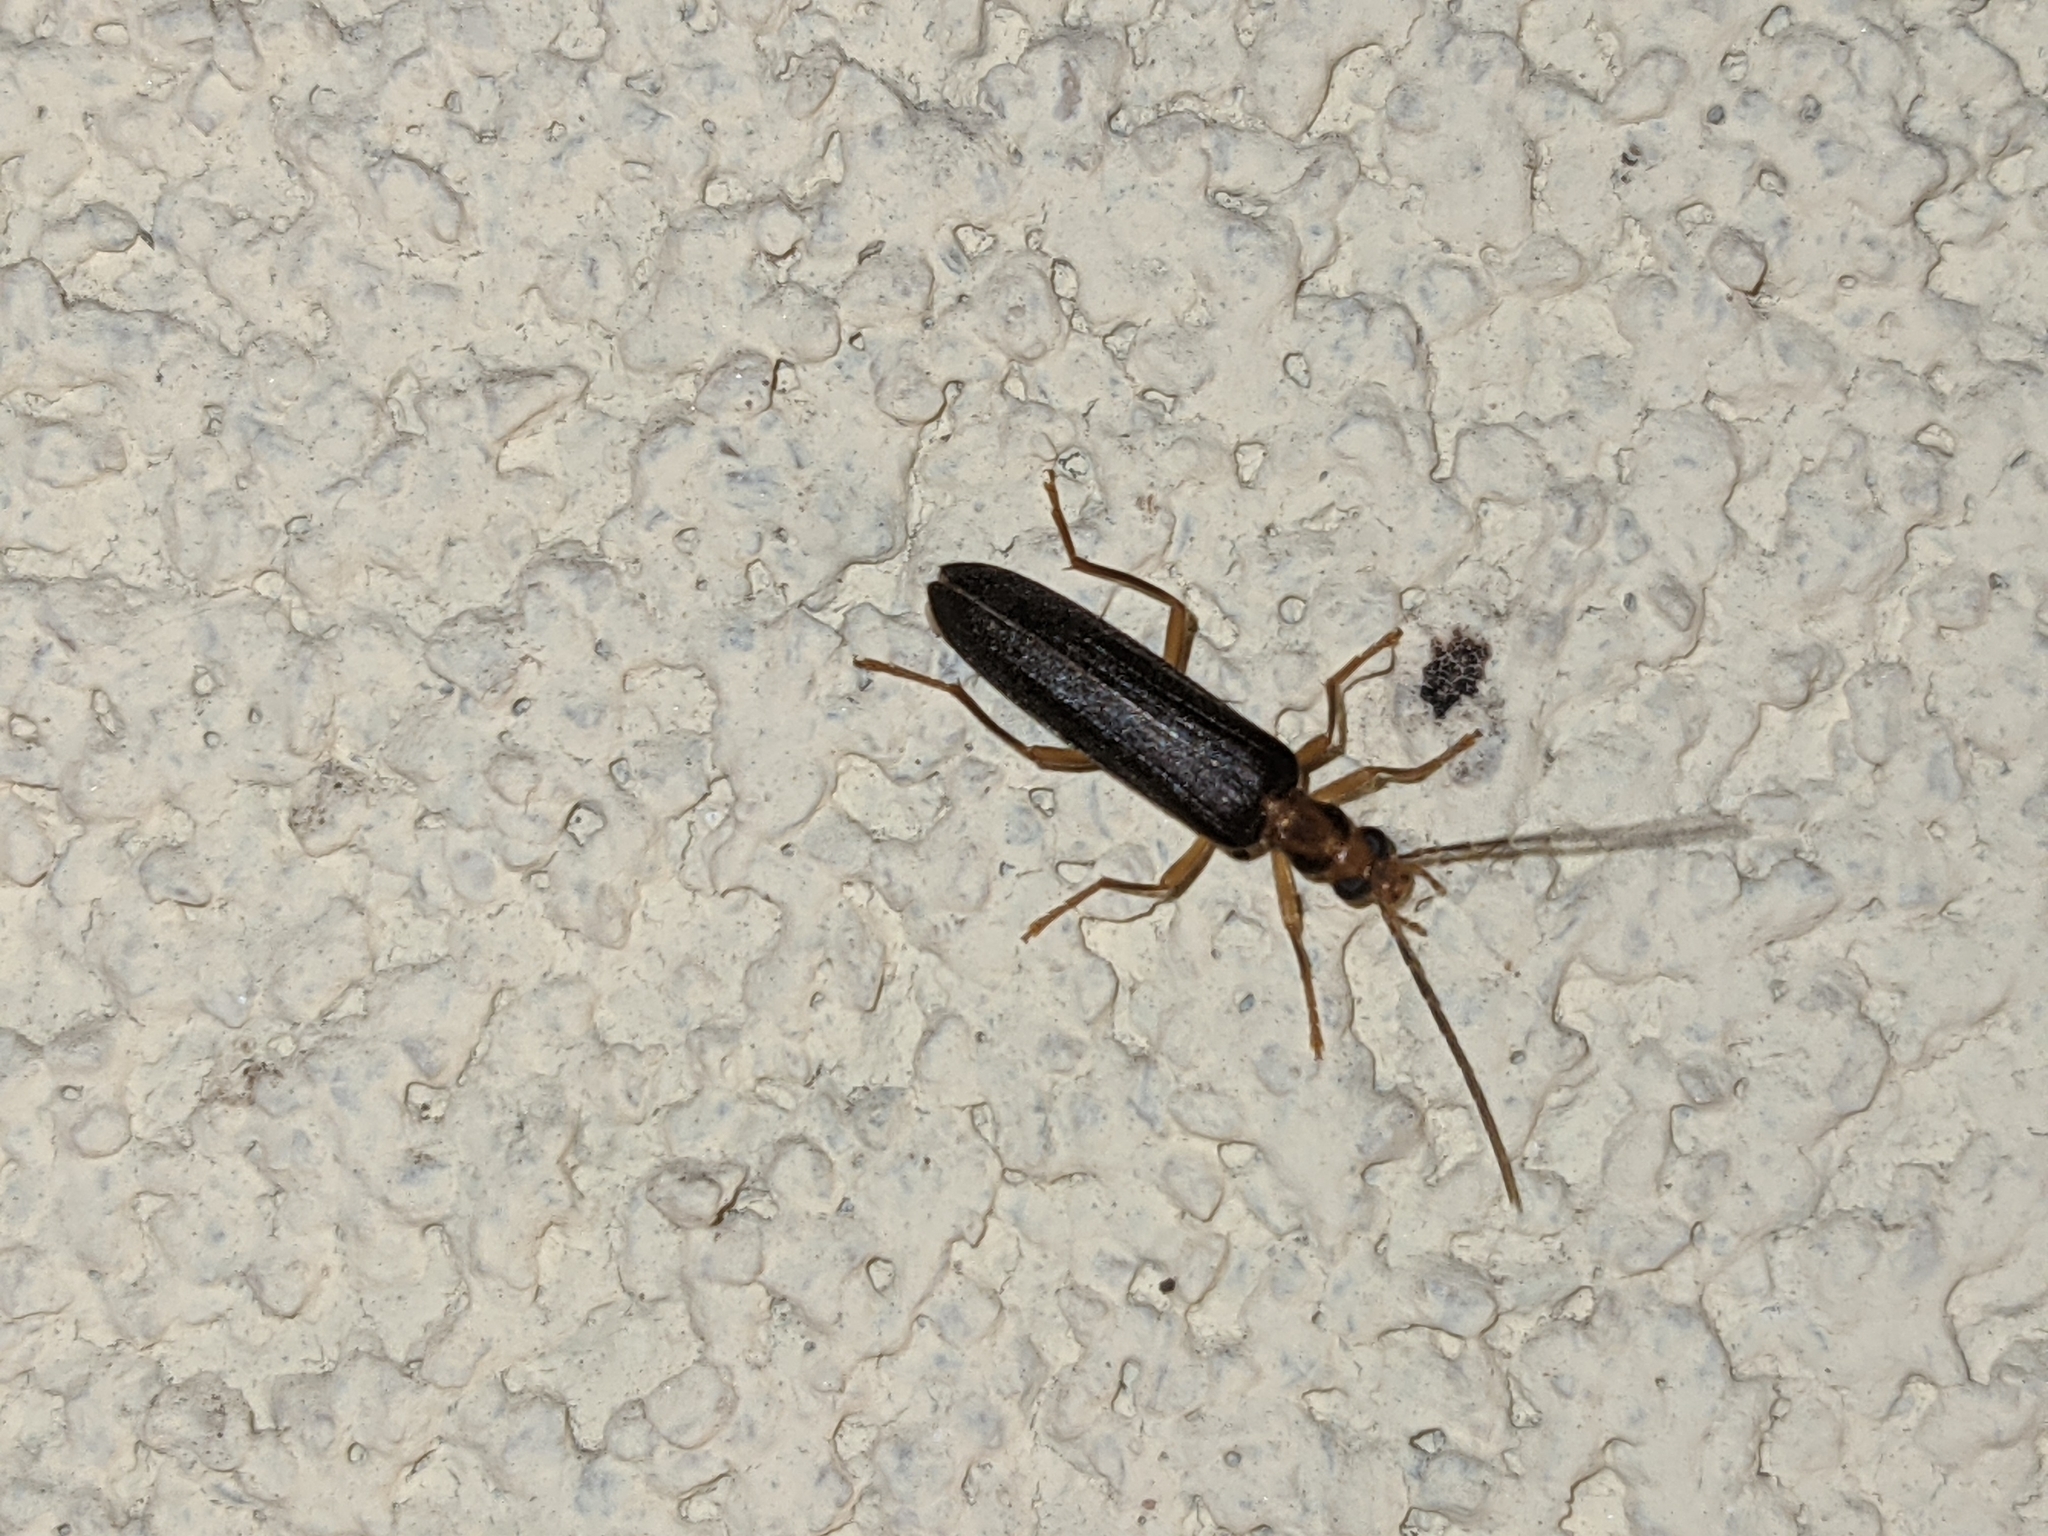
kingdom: Animalia
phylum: Arthropoda
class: Insecta
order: Coleoptera
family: Oedemeridae
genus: Nacerdes
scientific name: Nacerdes carniolica
